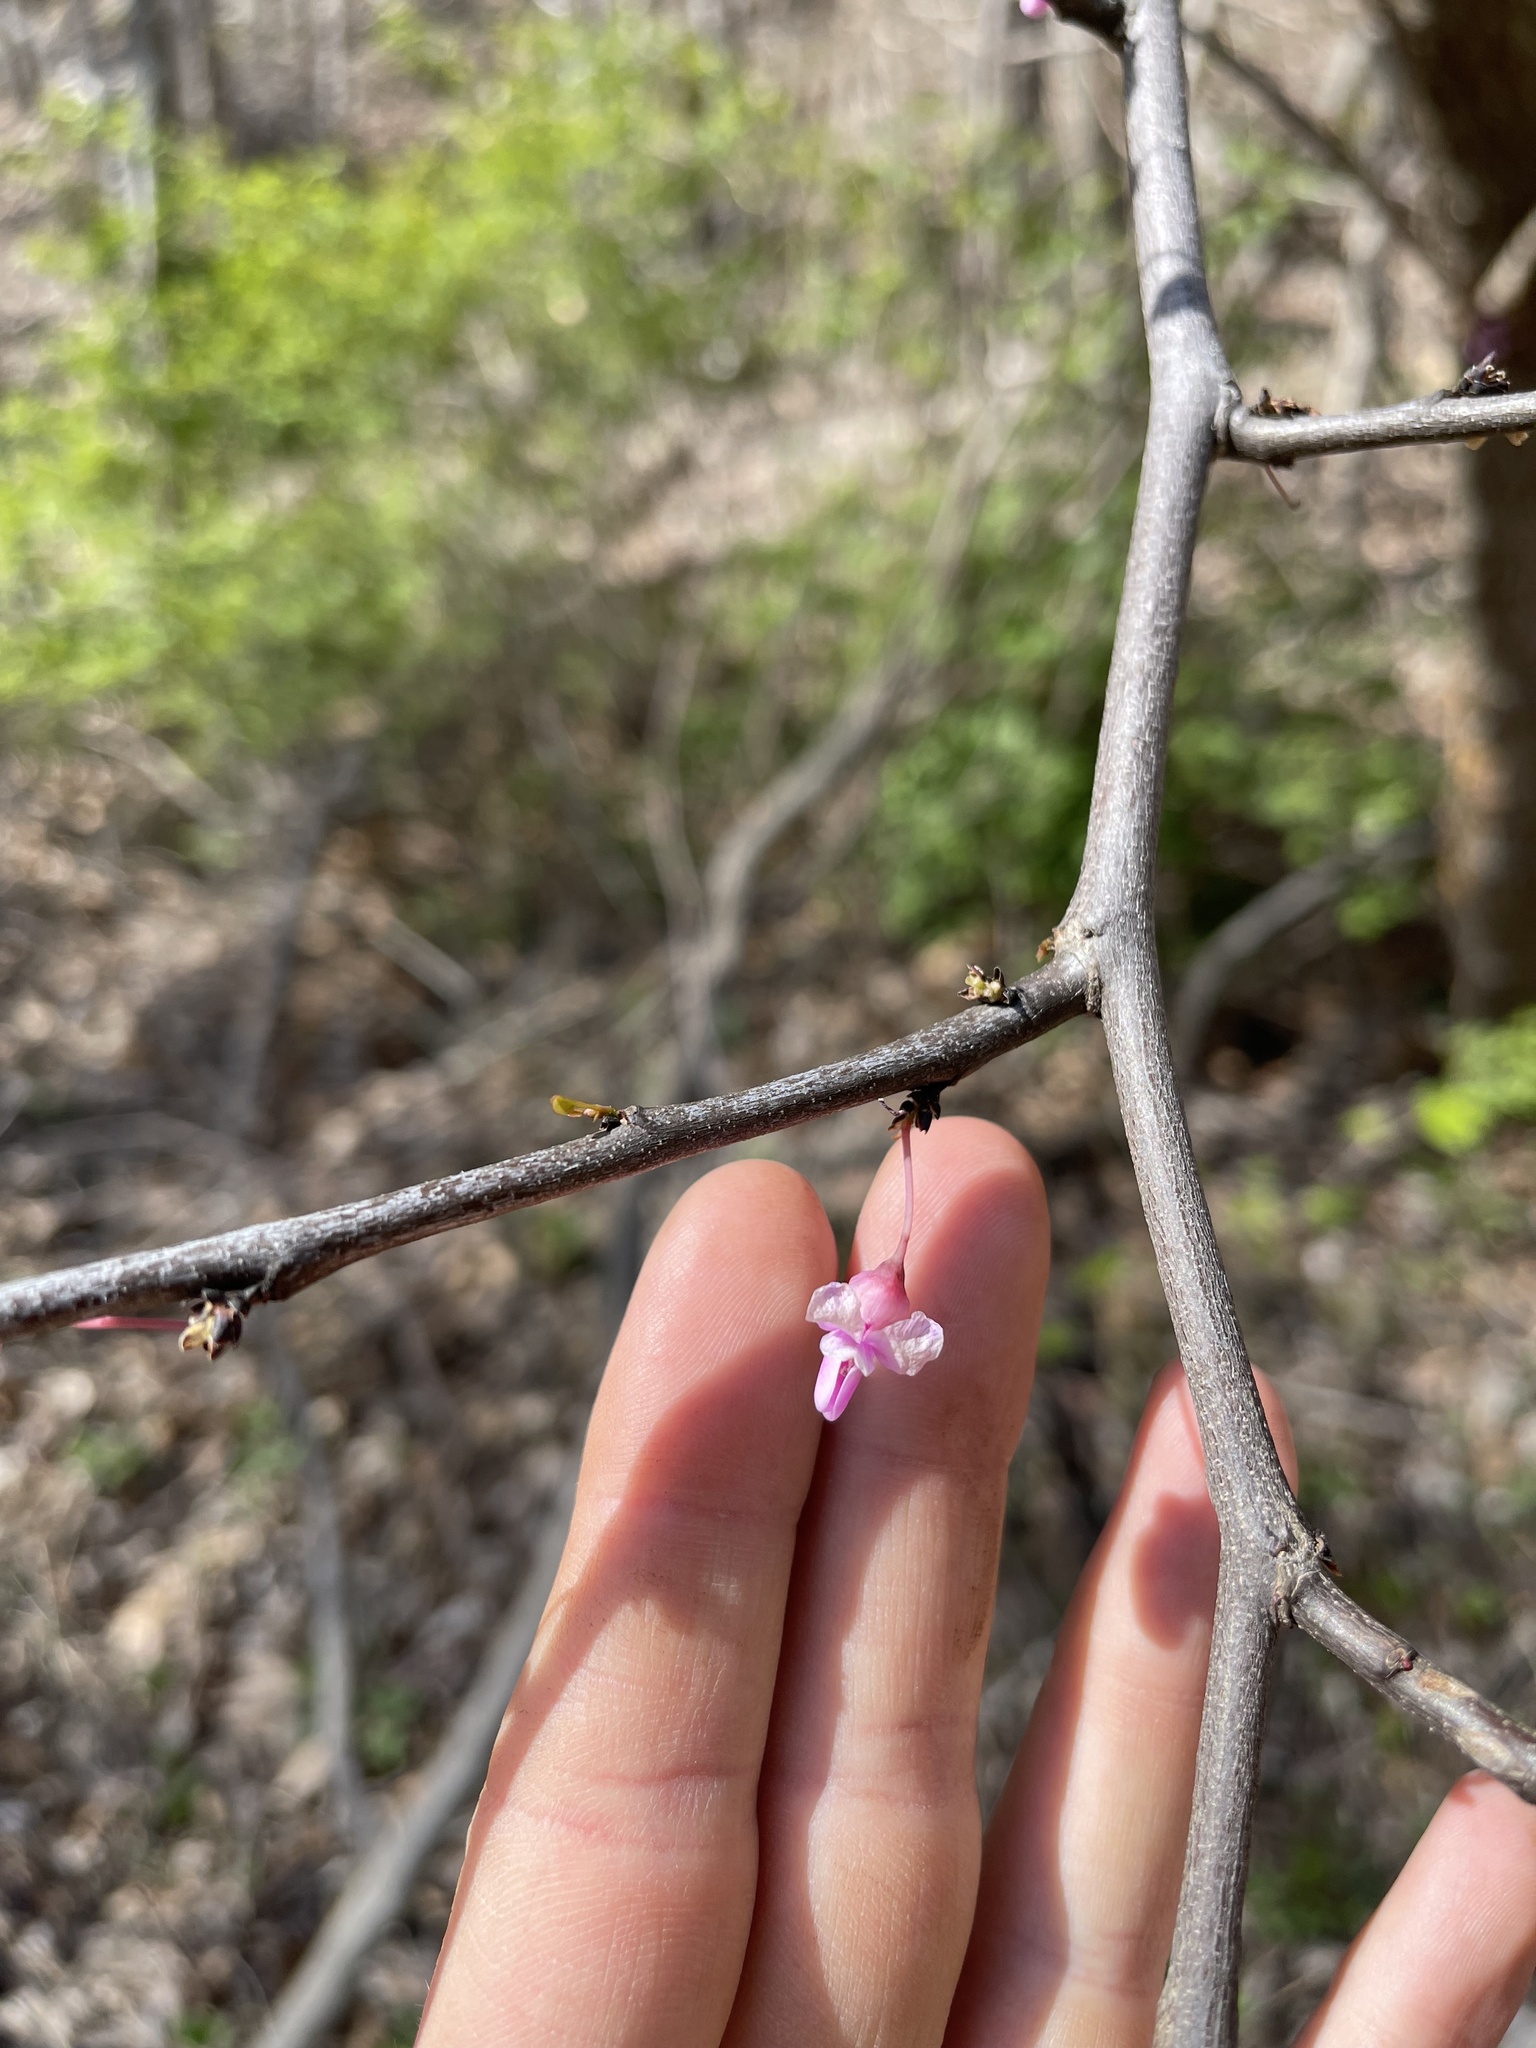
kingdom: Plantae
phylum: Tracheophyta
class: Magnoliopsida
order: Fabales
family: Fabaceae
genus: Cercis
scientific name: Cercis canadensis
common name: Eastern redbud
